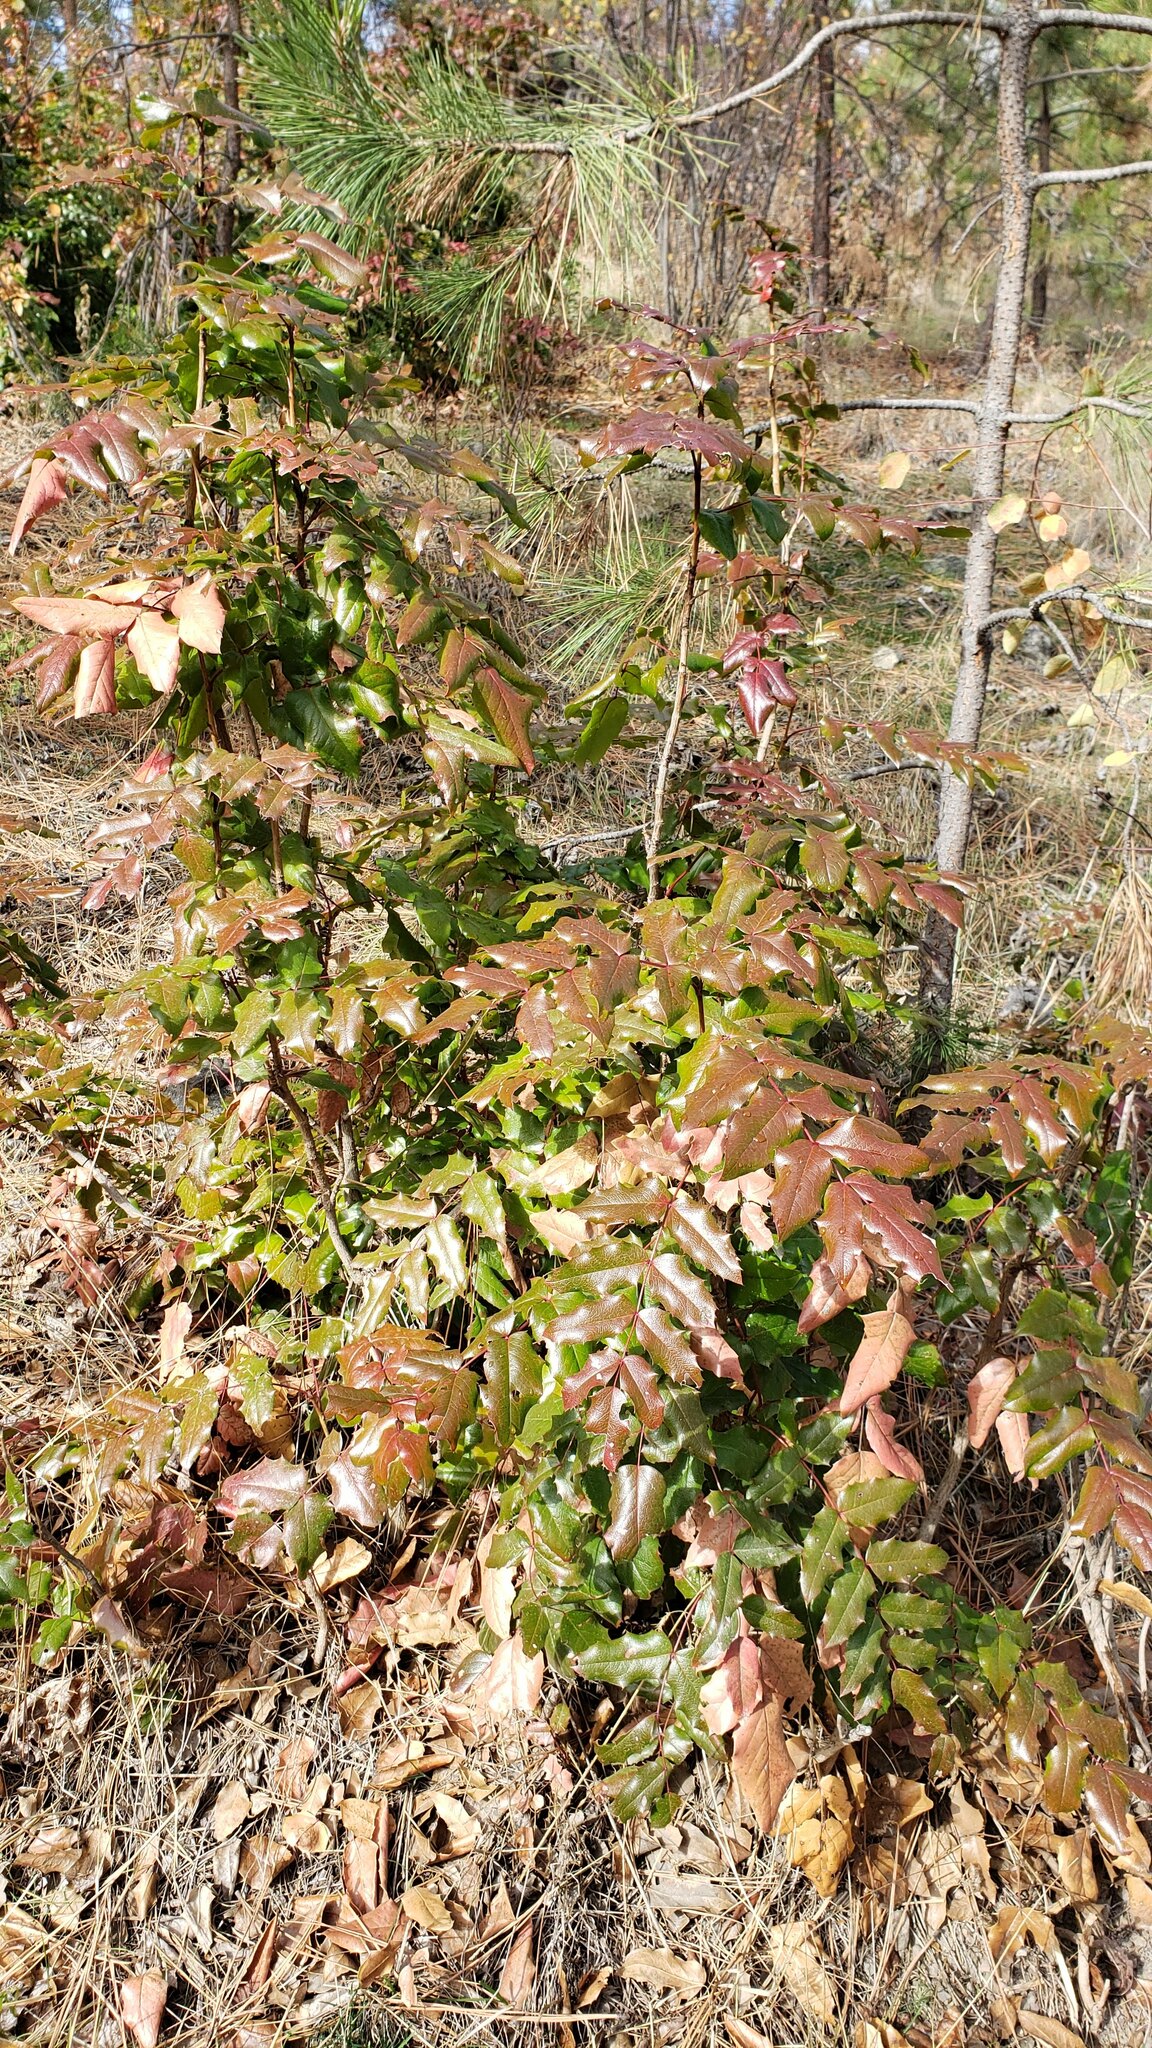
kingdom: Plantae
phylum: Tracheophyta
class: Magnoliopsida
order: Ranunculales
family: Berberidaceae
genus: Mahonia
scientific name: Mahonia aquifolium
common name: Oregon-grape
